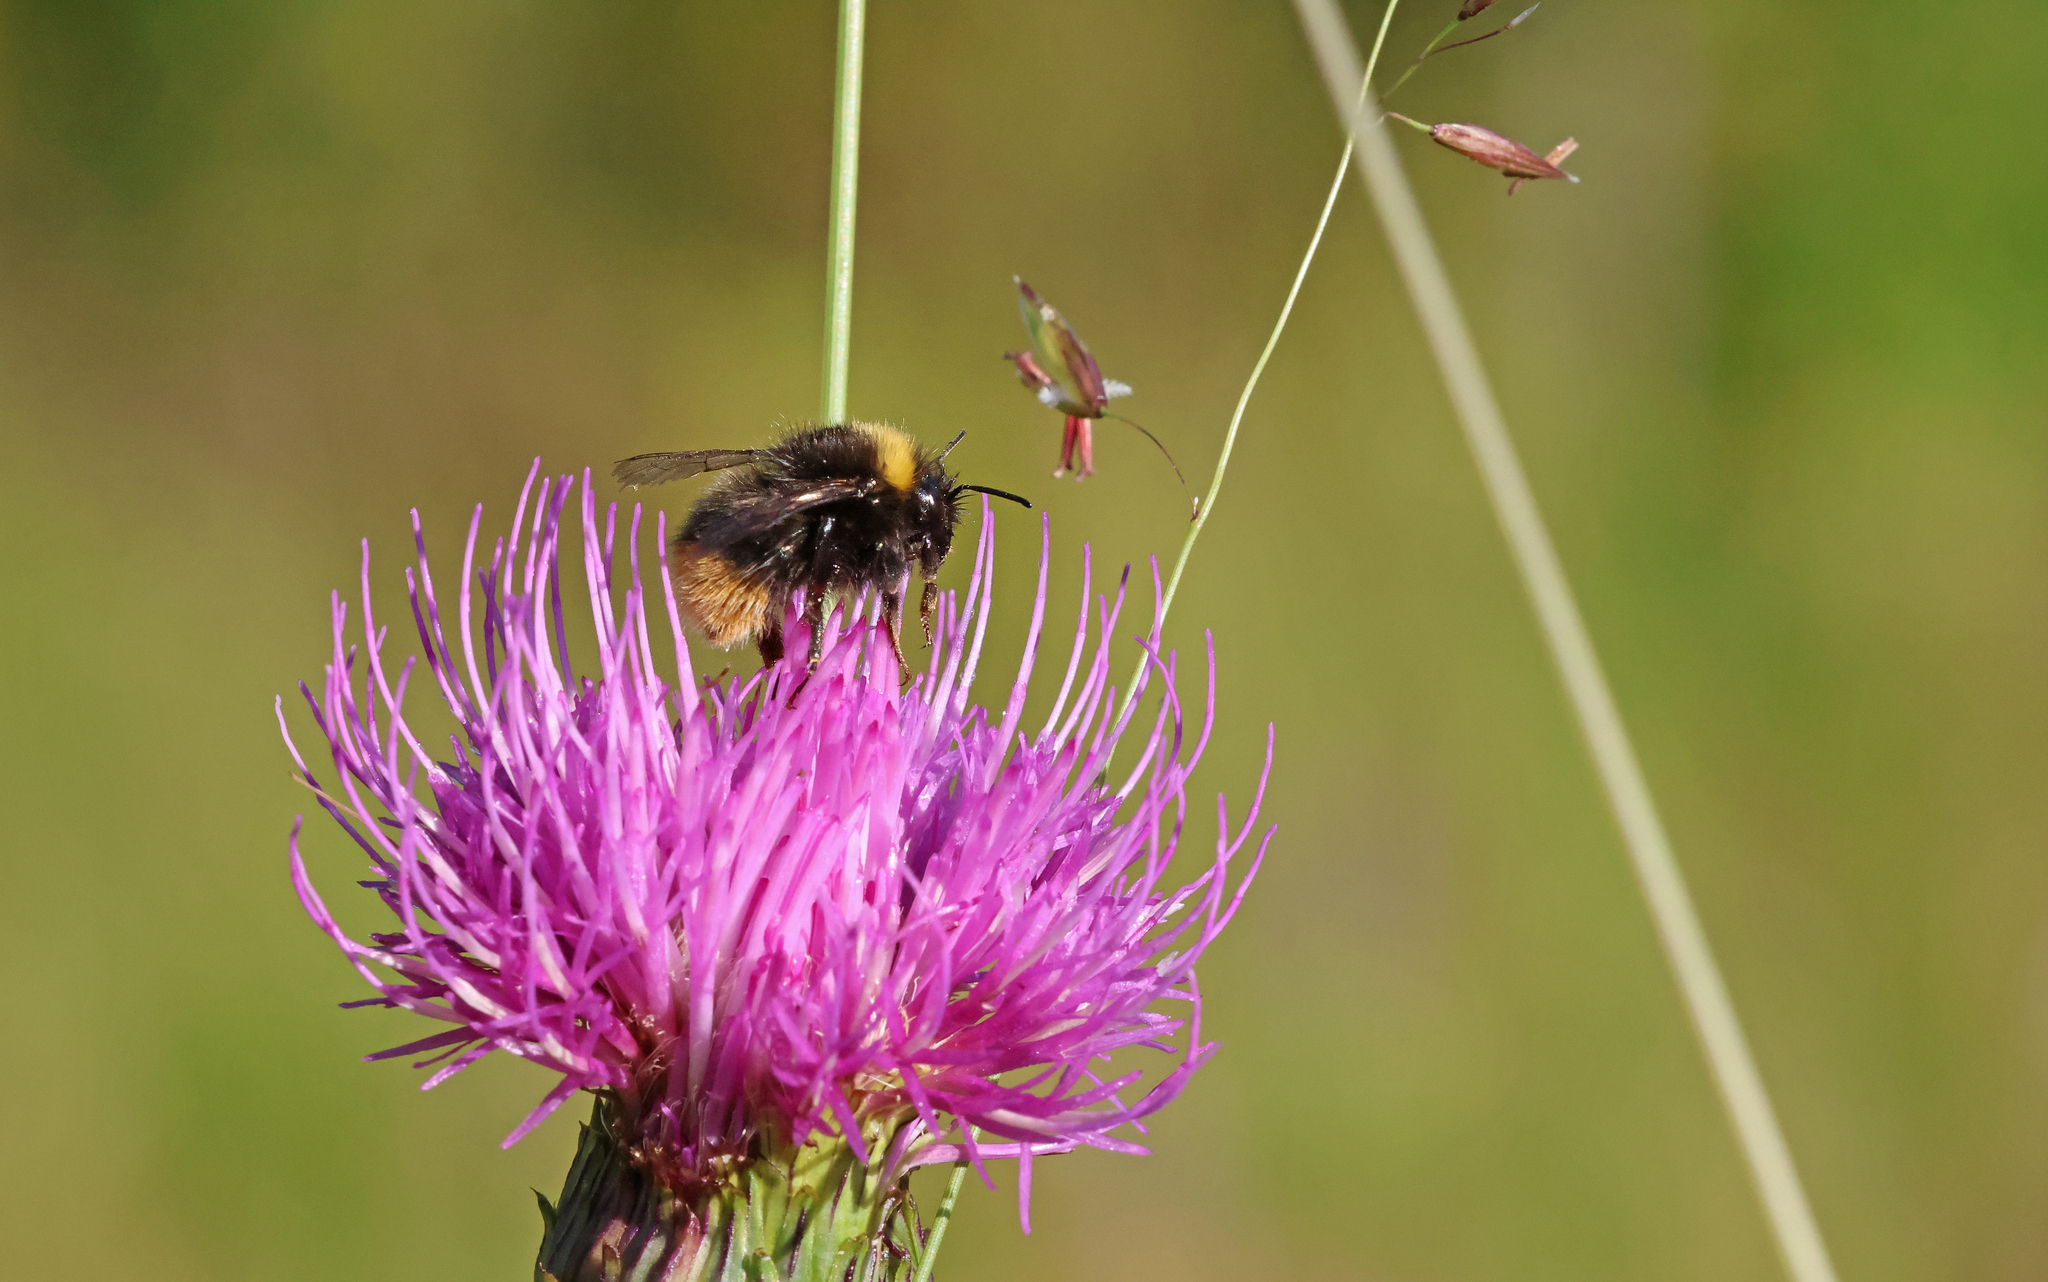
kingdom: Animalia
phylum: Arthropoda
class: Insecta
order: Hymenoptera
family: Apidae
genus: Bombus
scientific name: Bombus pratorum
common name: Early humble-bee
